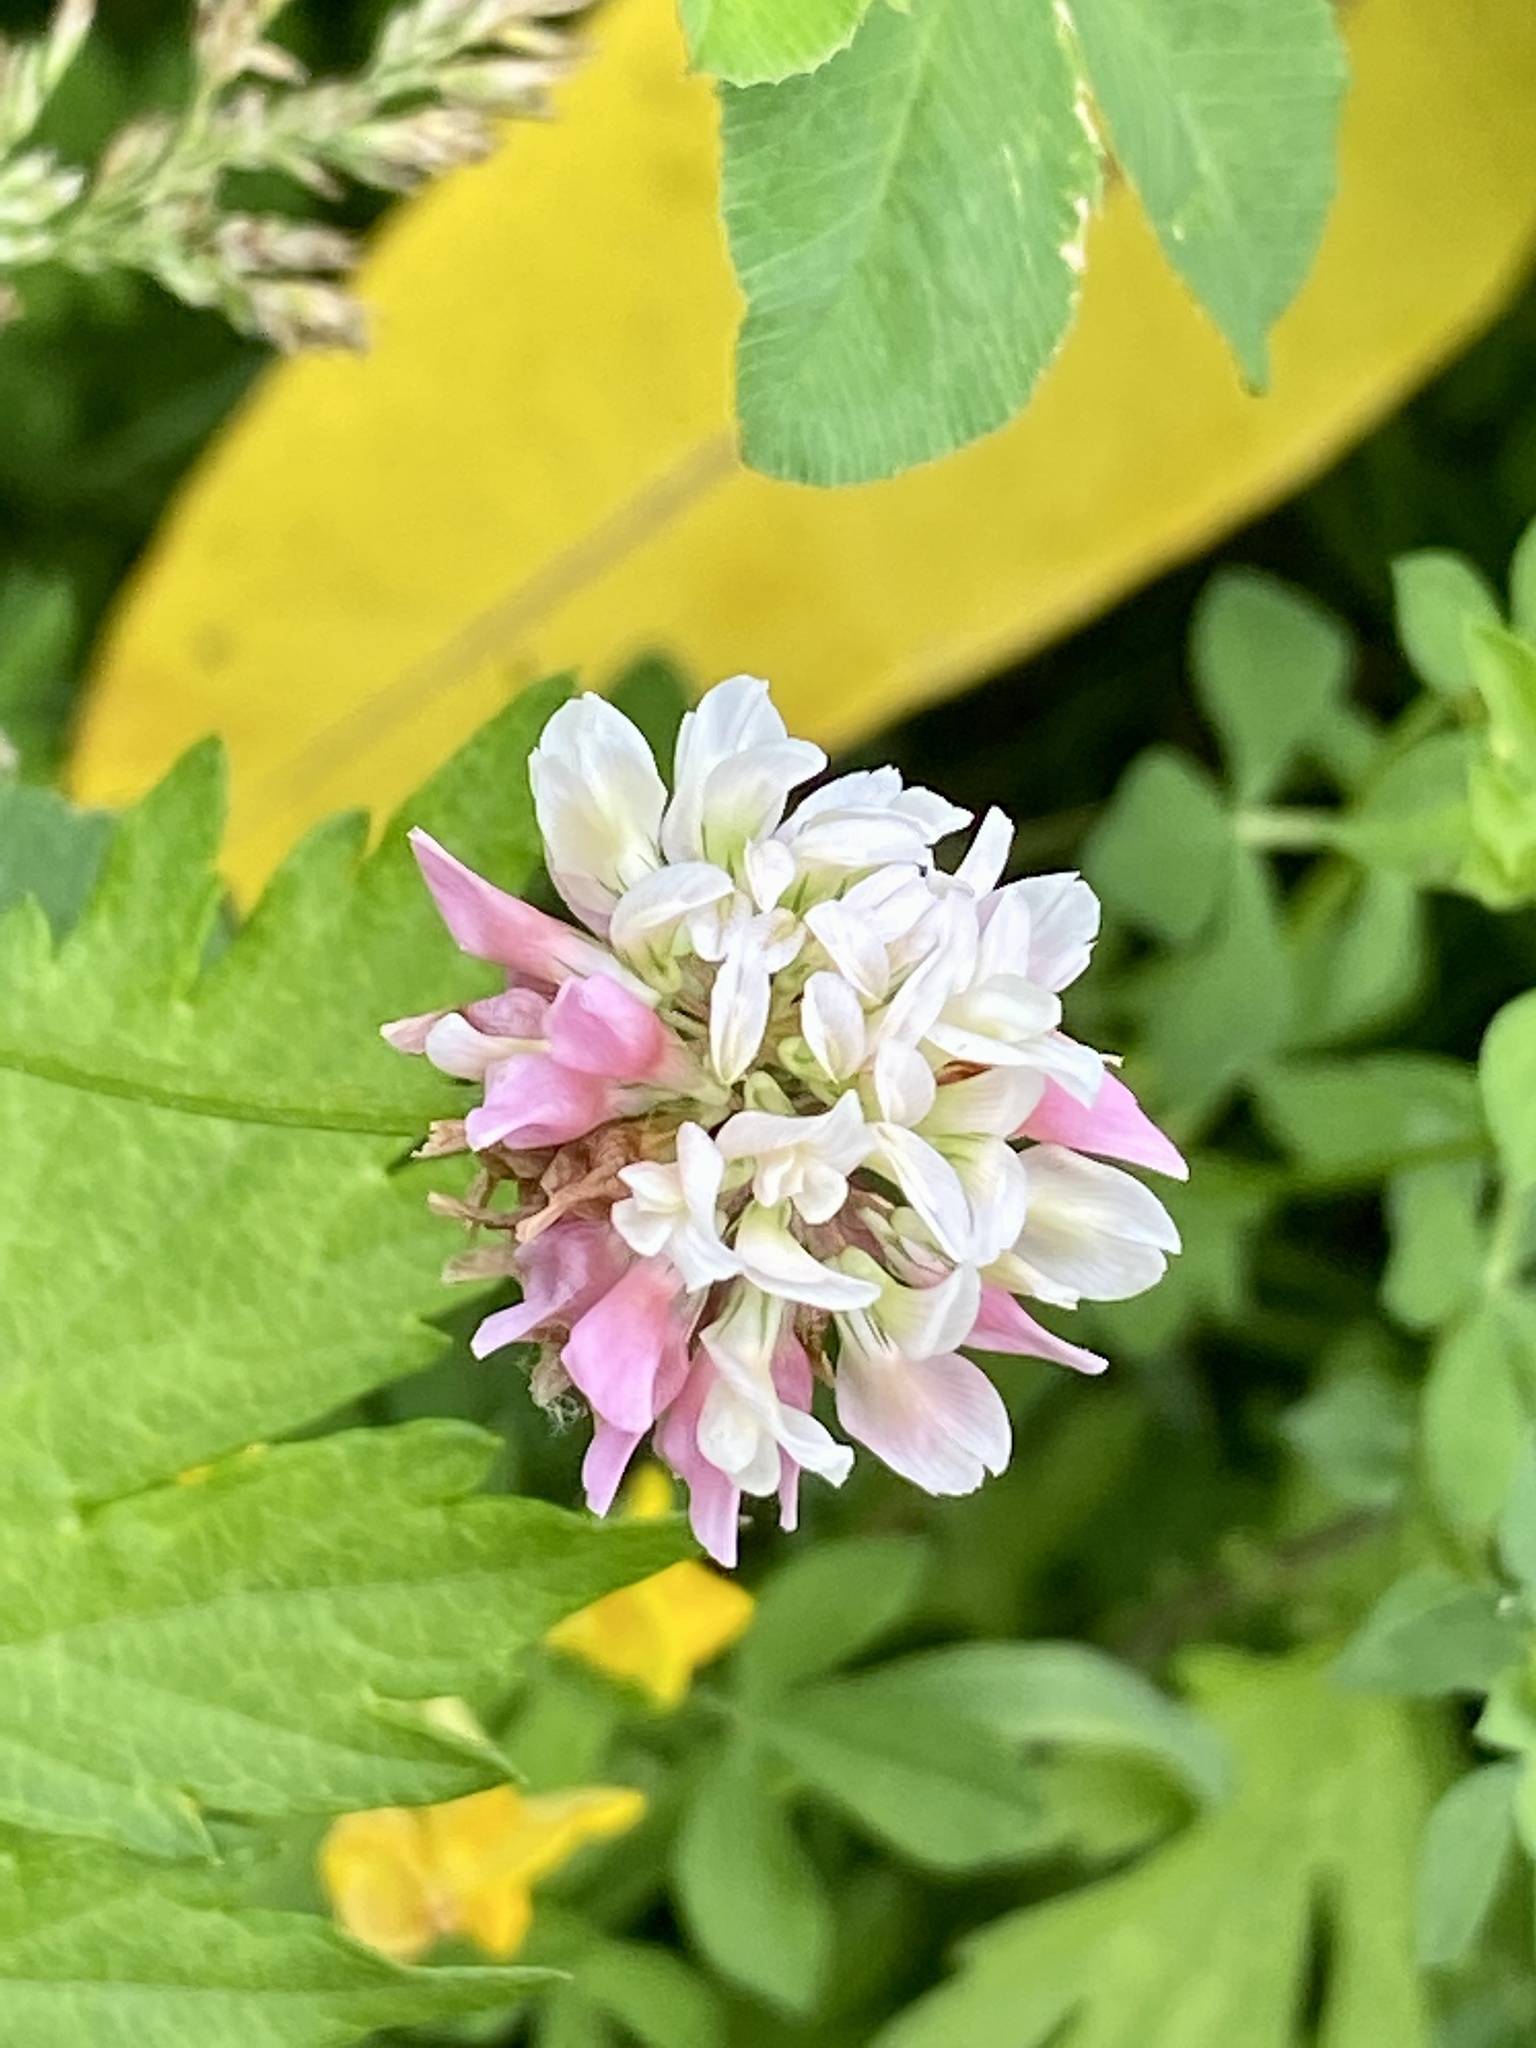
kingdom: Plantae
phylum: Tracheophyta
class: Magnoliopsida
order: Fabales
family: Fabaceae
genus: Trifolium
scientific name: Trifolium hybridum
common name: Alsike clover
